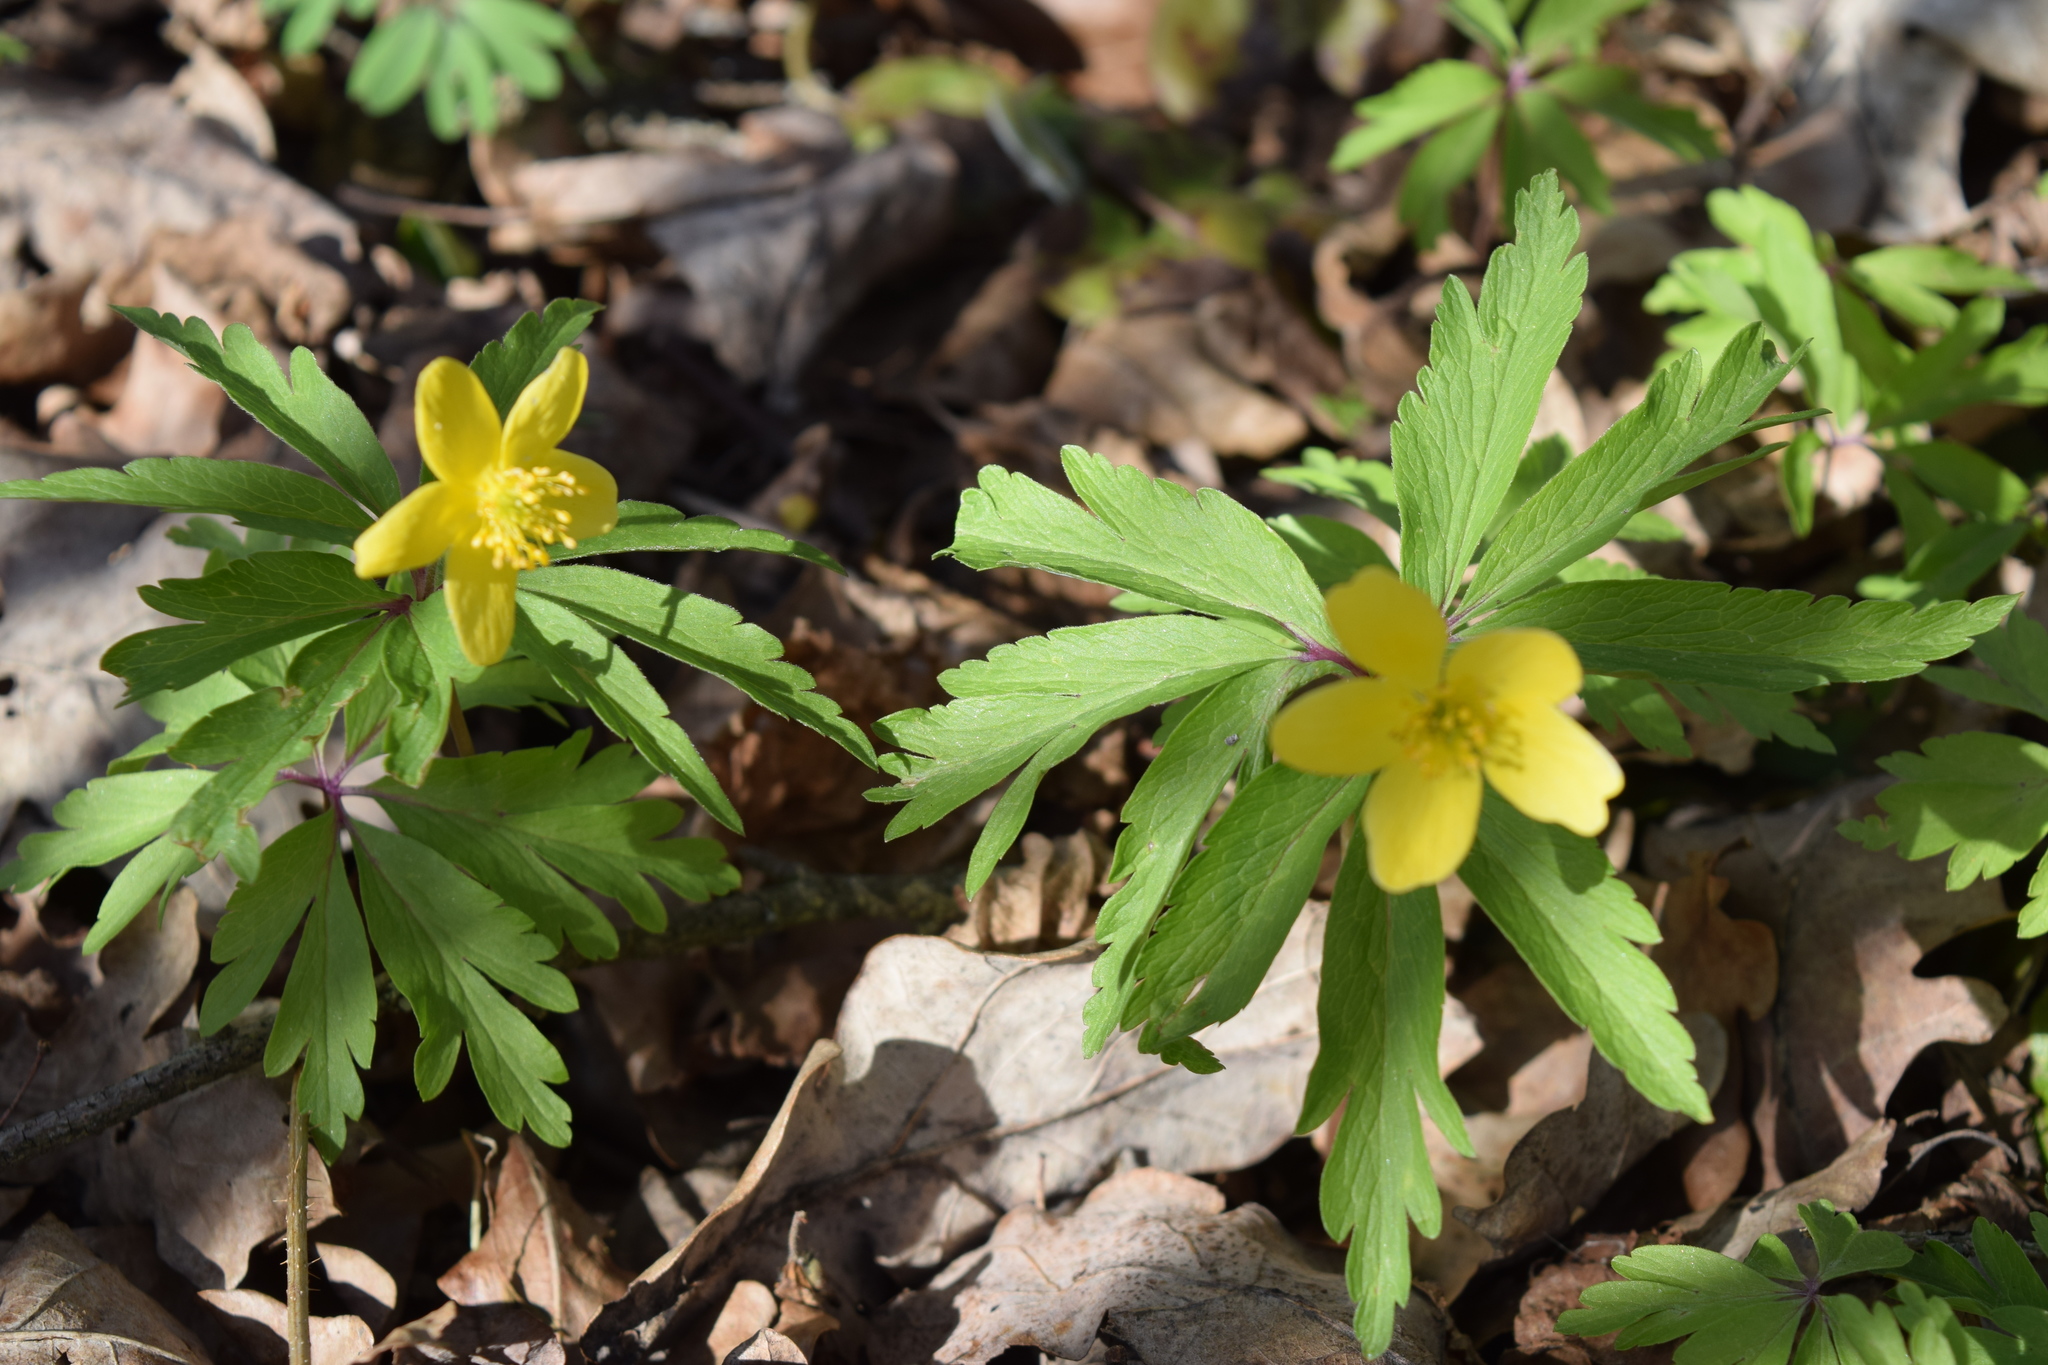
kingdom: Plantae
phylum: Tracheophyta
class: Magnoliopsida
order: Ranunculales
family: Ranunculaceae
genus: Anemone
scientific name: Anemone ranunculoides
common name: Yellow anemone
